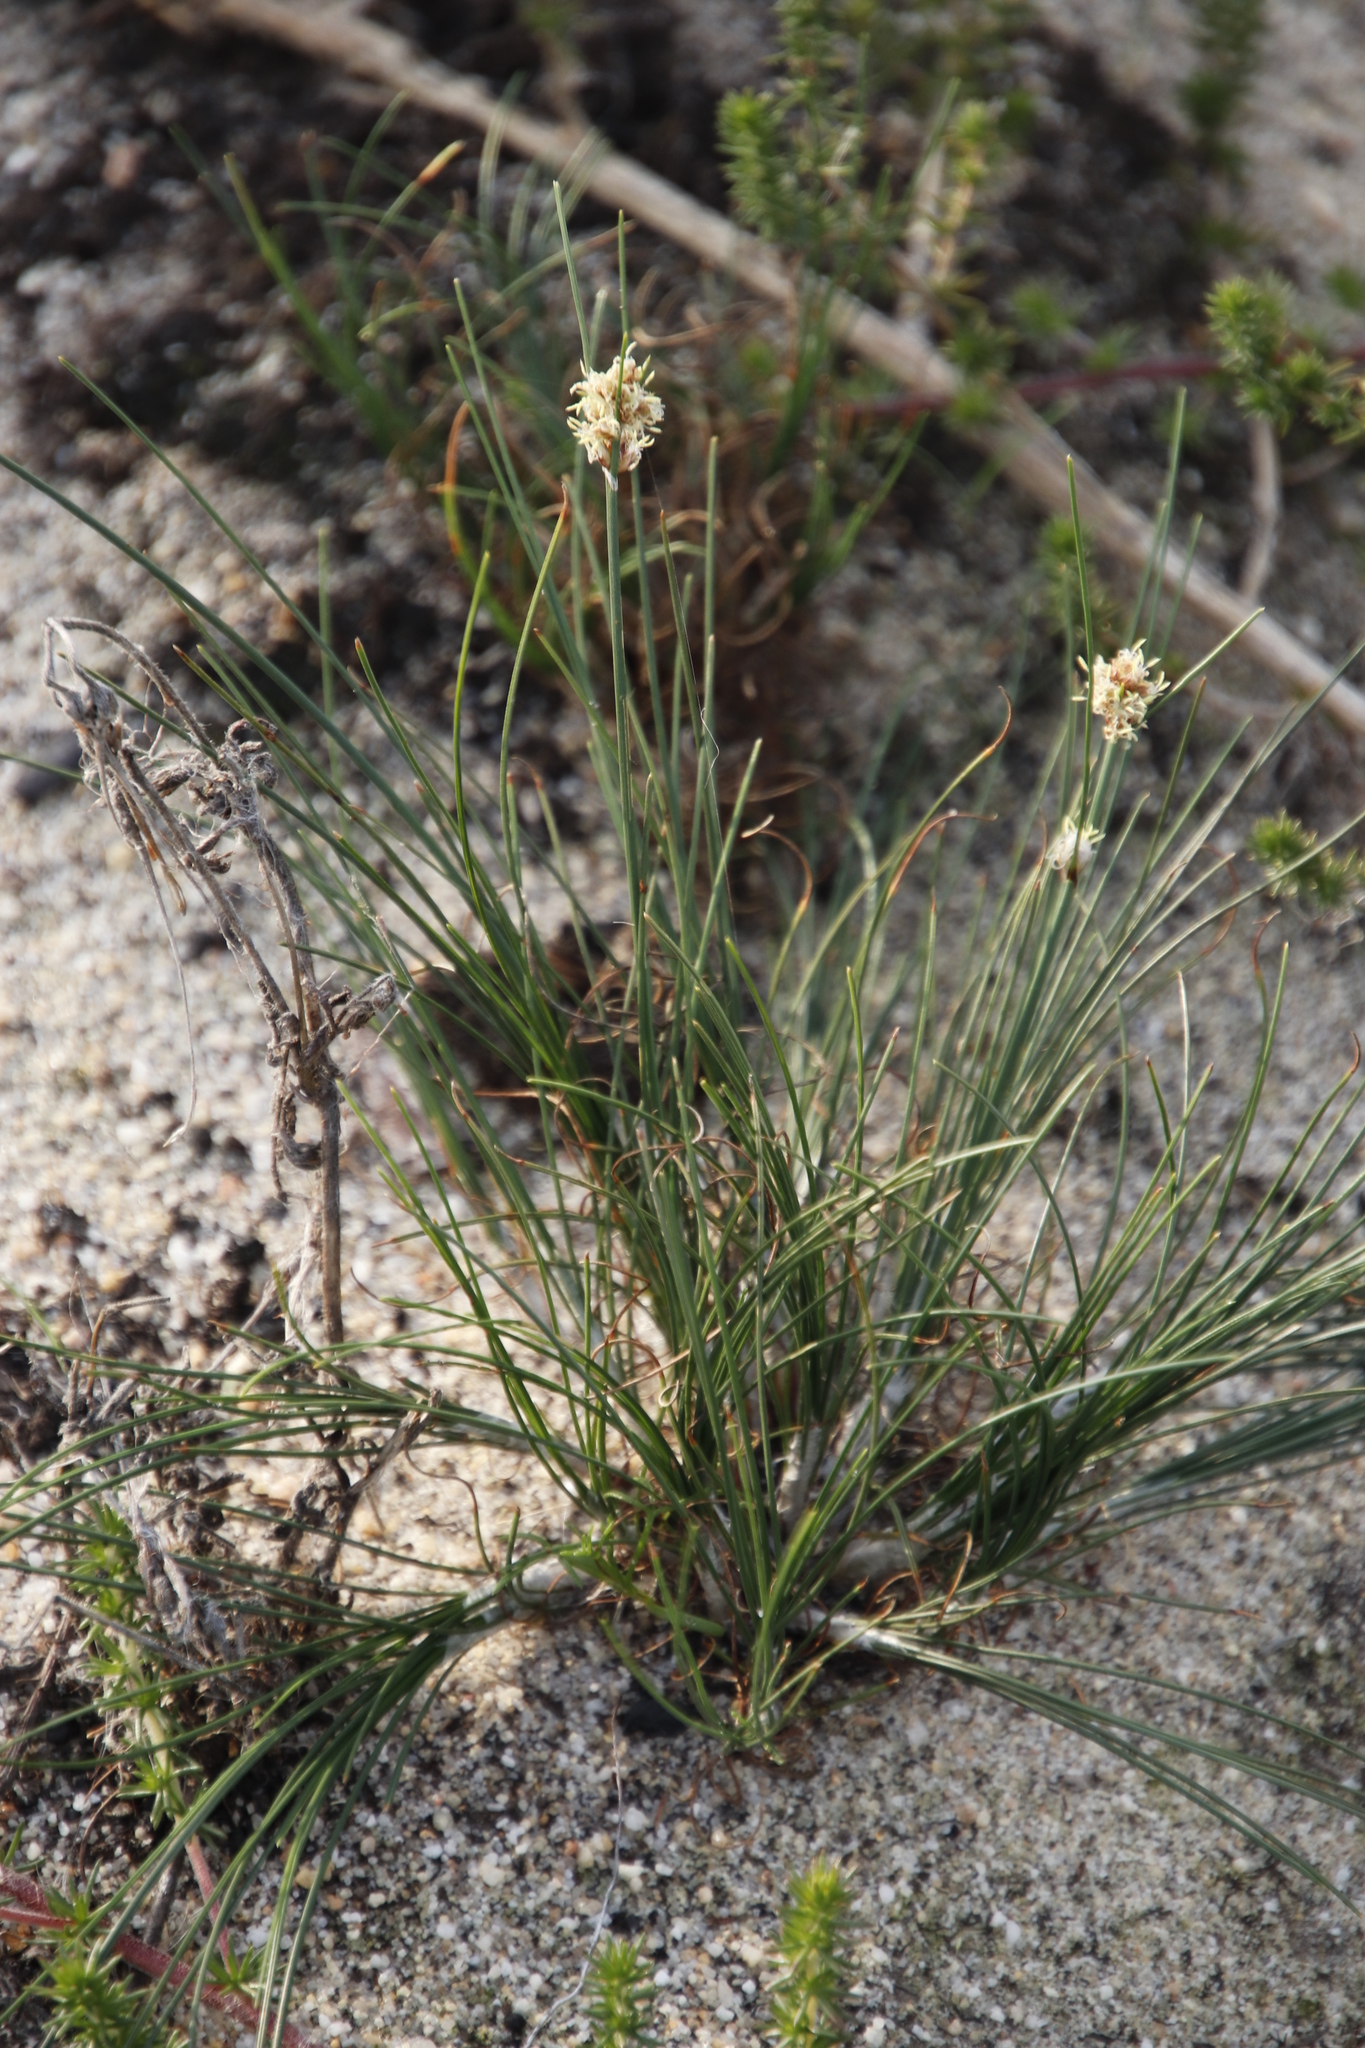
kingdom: Plantae
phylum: Tracheophyta
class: Liliopsida
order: Poales
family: Cyperaceae
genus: Ficinia
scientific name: Ficinia deusta
